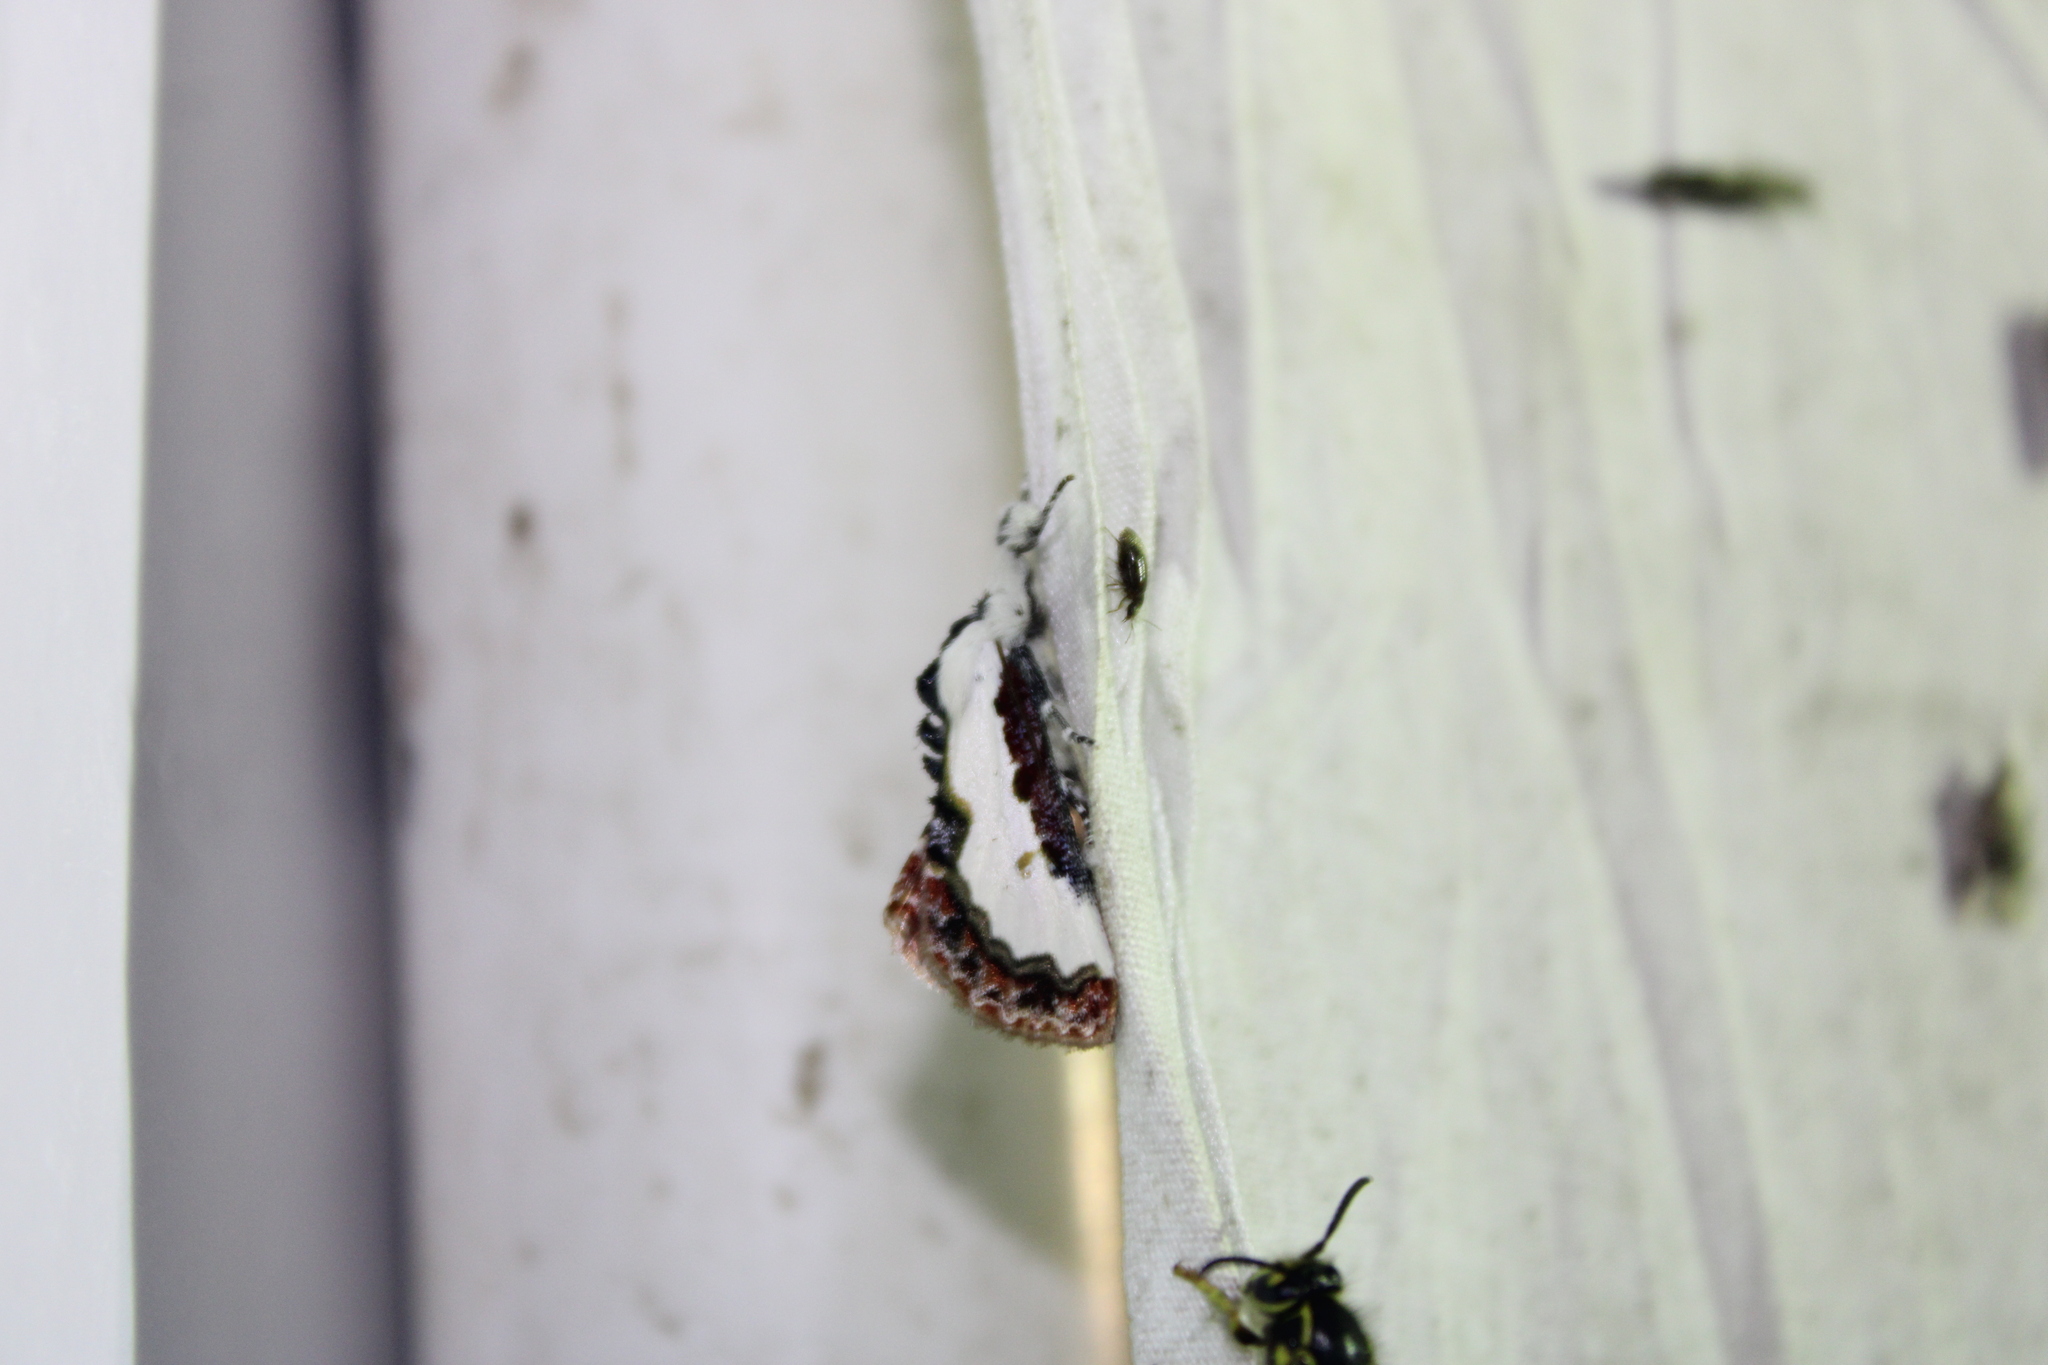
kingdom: Animalia
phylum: Arthropoda
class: Insecta
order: Lepidoptera
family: Noctuidae
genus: Eudryas
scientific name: Eudryas unio
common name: Pearly wood-nymph
